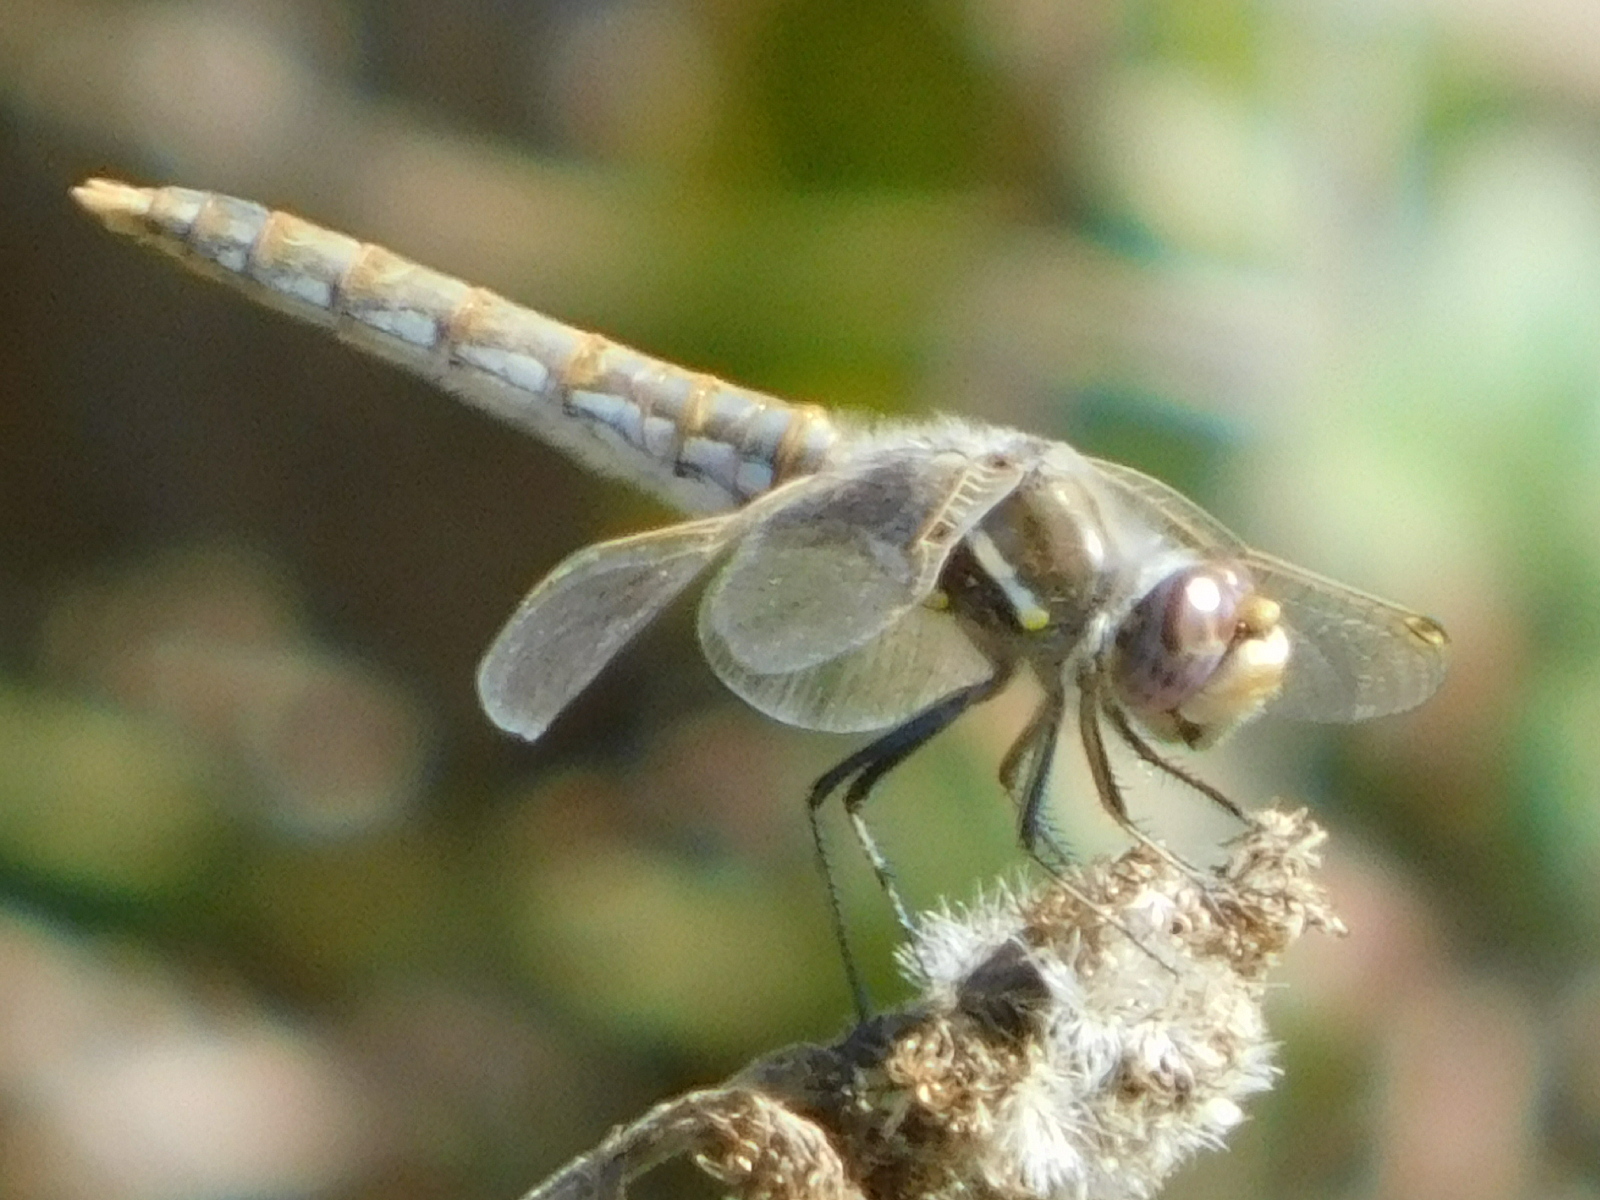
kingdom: Animalia
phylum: Arthropoda
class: Insecta
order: Odonata
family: Libellulidae
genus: Sympetrum
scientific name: Sympetrum corruptum
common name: Variegated meadowhawk
